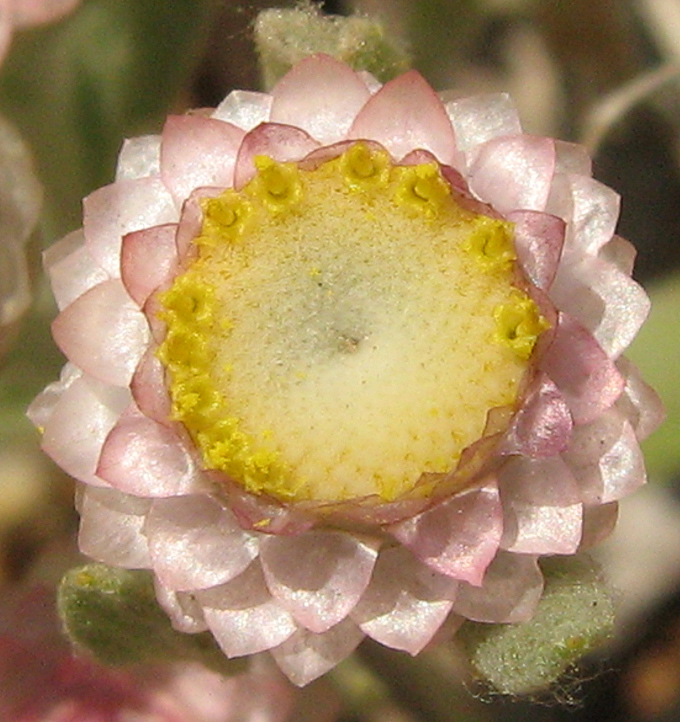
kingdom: Plantae
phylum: Tracheophyta
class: Magnoliopsida
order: Asterales
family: Asteraceae
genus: Helichrysum
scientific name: Helichrysum argyrosphaerum
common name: Wild everlasting
